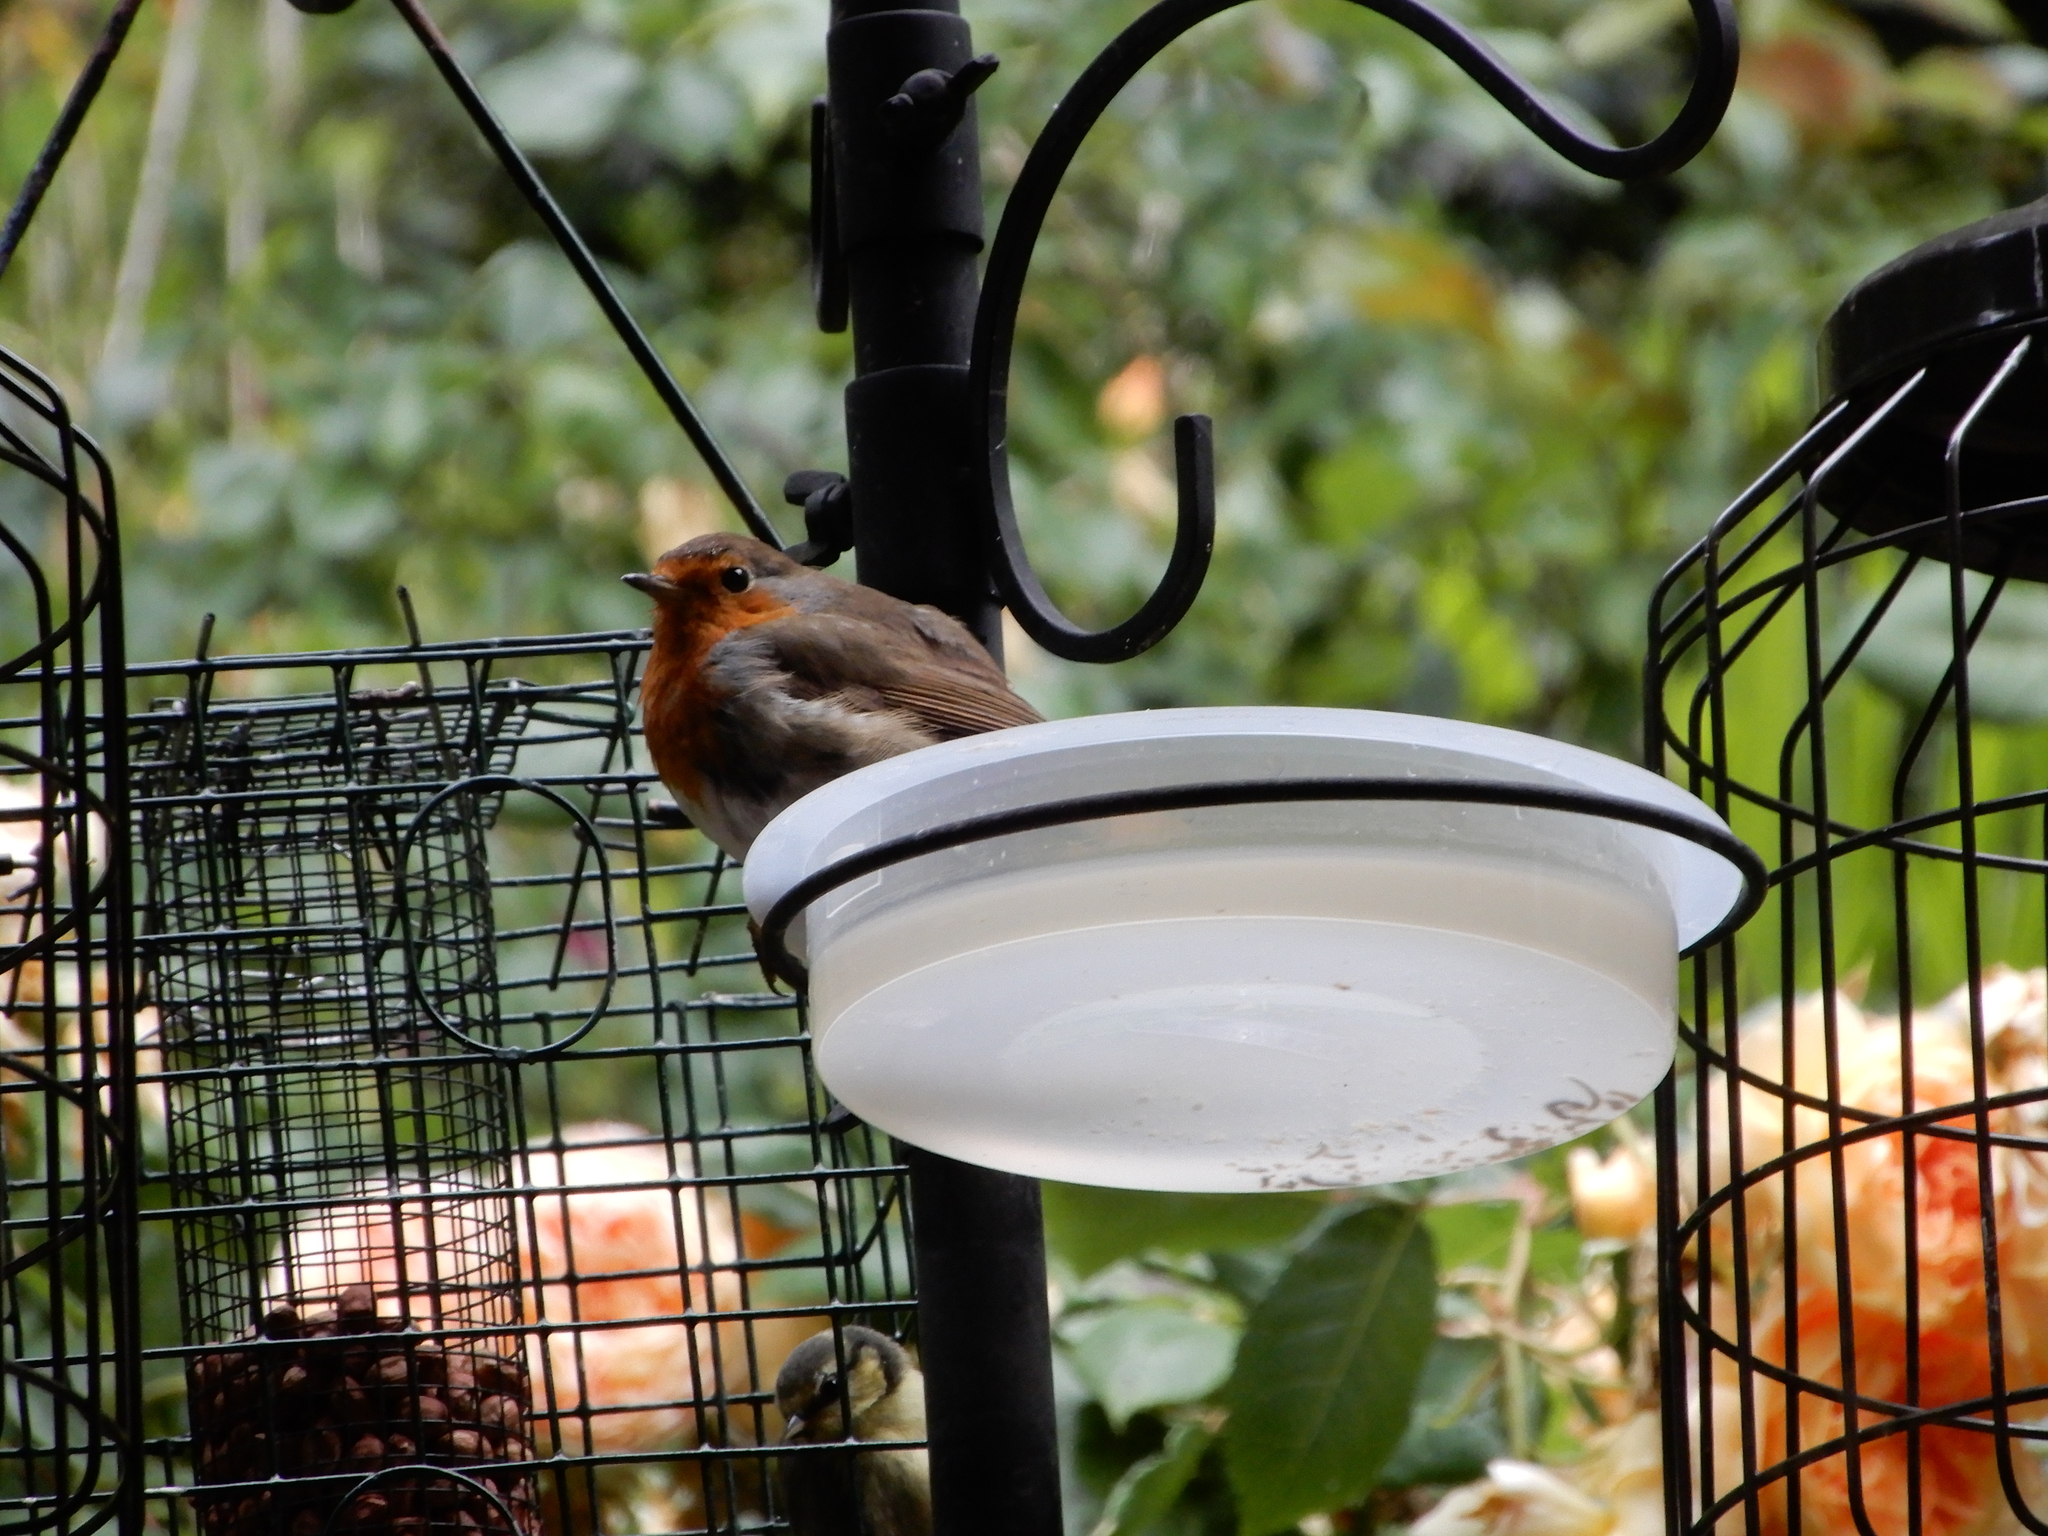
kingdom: Animalia
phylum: Chordata
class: Aves
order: Passeriformes
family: Muscicapidae
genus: Erithacus
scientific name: Erithacus rubecula
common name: European robin
